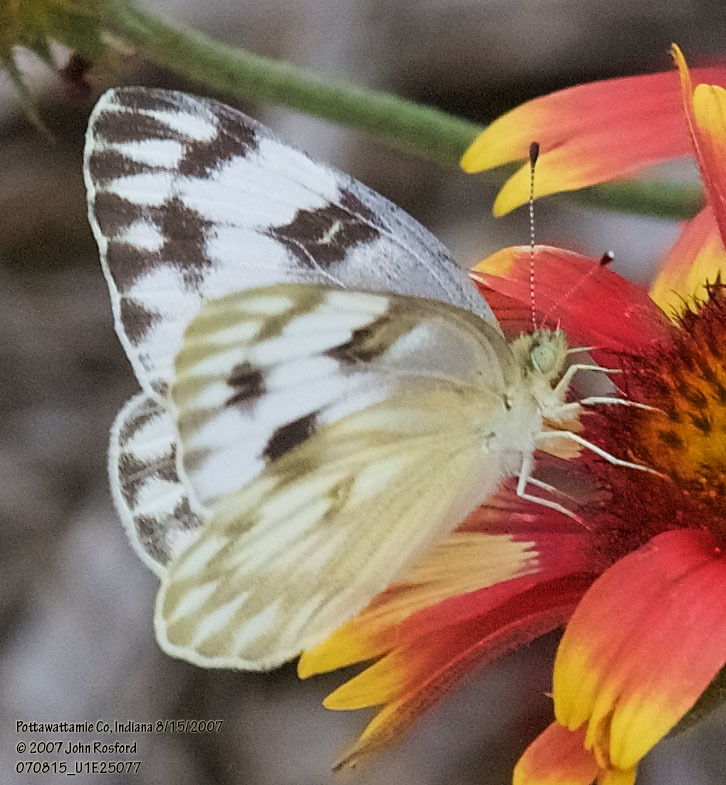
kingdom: Animalia
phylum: Arthropoda
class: Insecta
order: Lepidoptera
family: Pieridae
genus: Pontia
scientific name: Pontia protodice
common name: Checkered white
